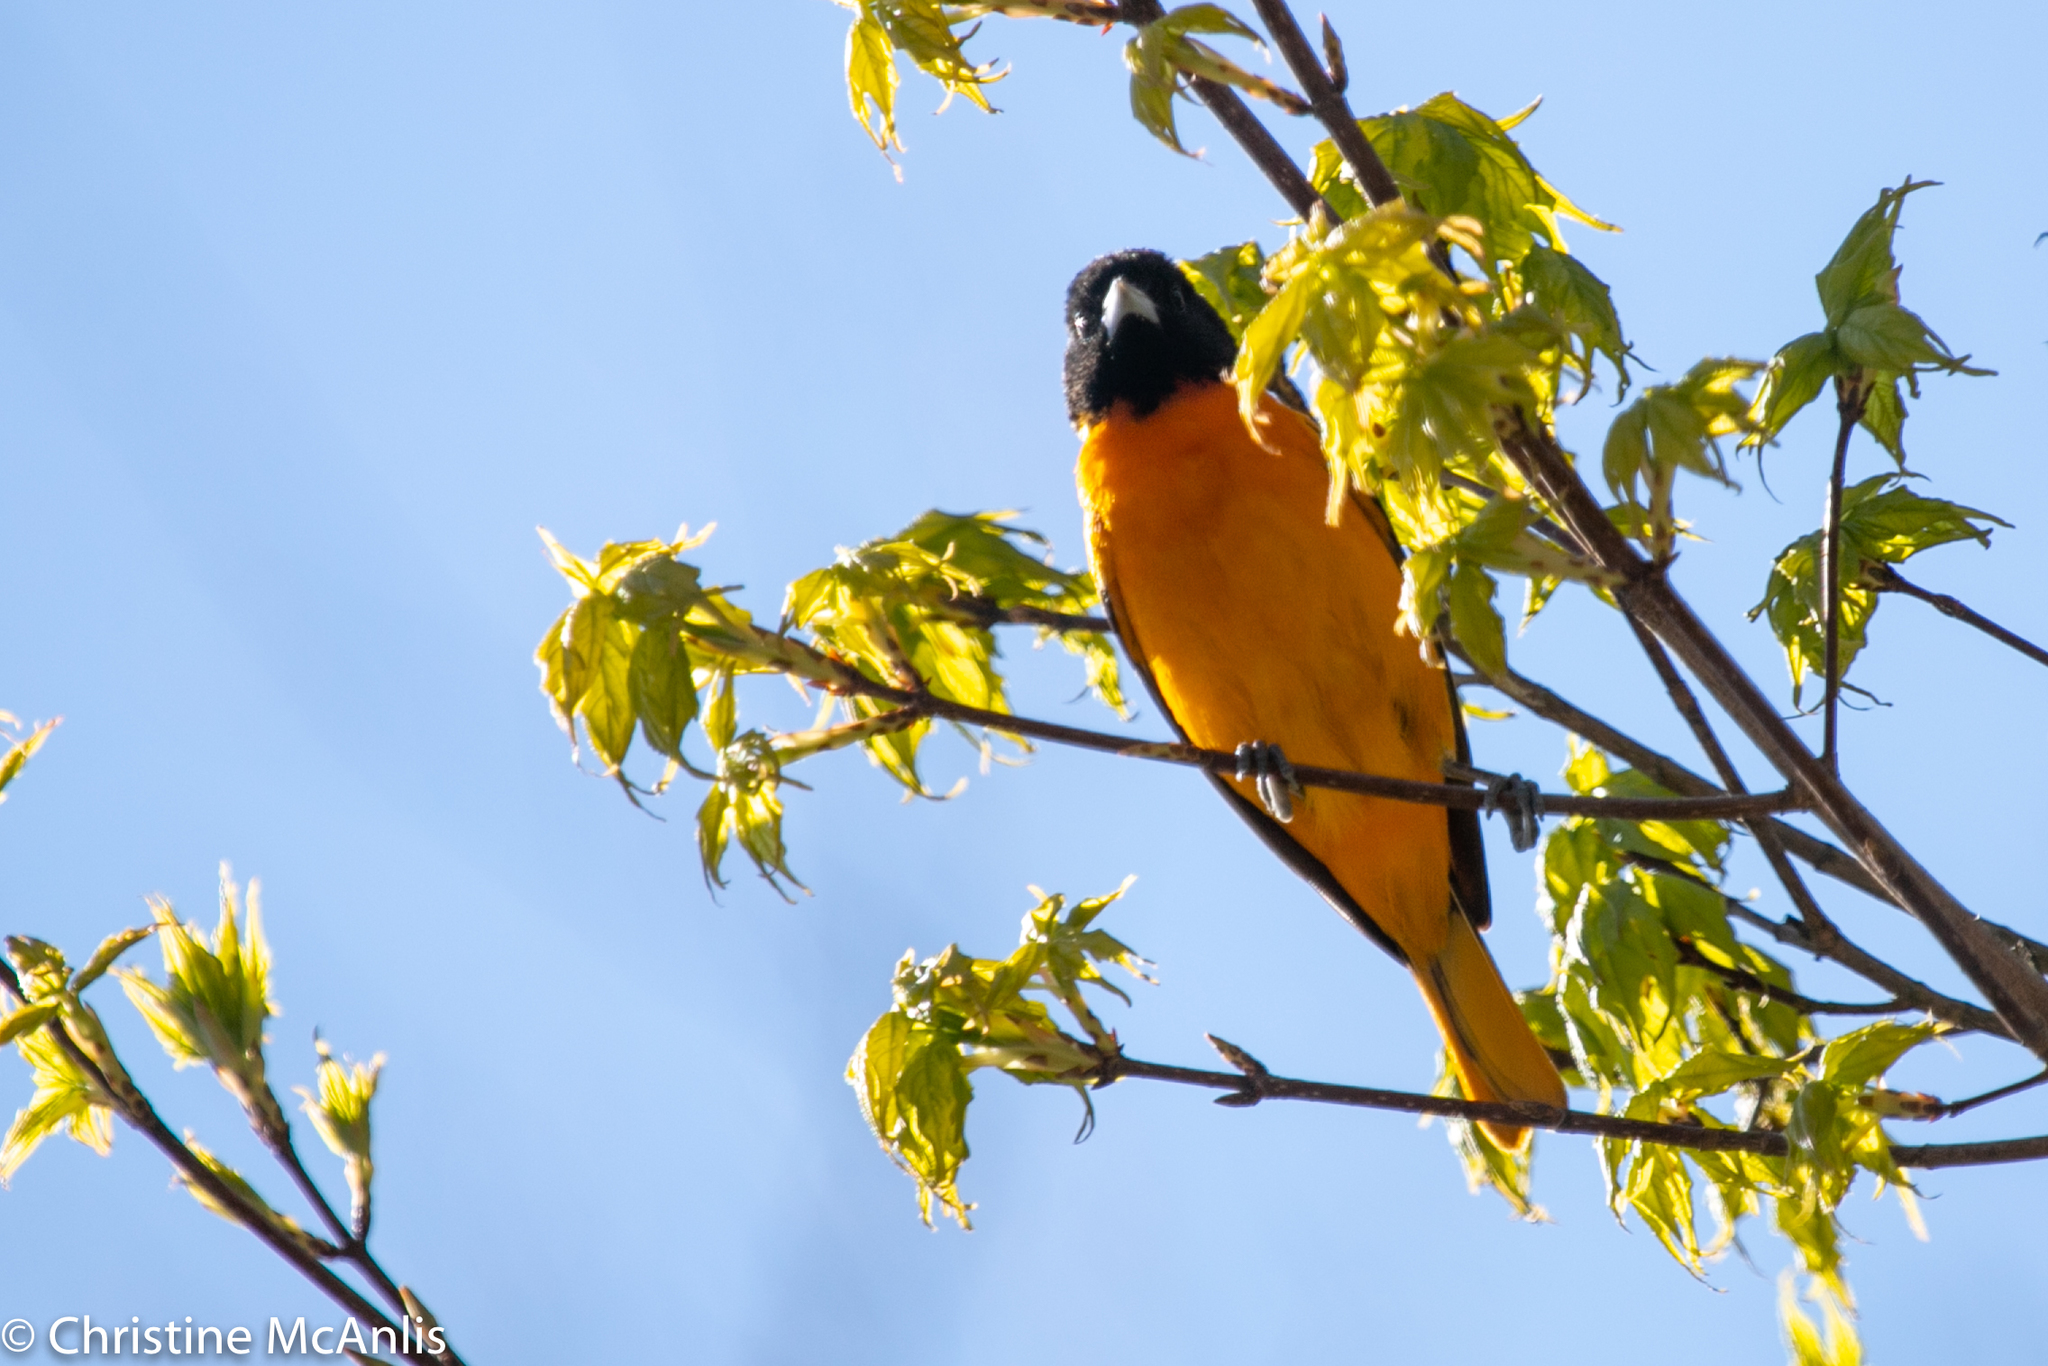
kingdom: Animalia
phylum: Chordata
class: Aves
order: Passeriformes
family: Icteridae
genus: Icterus
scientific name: Icterus galbula
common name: Baltimore oriole
